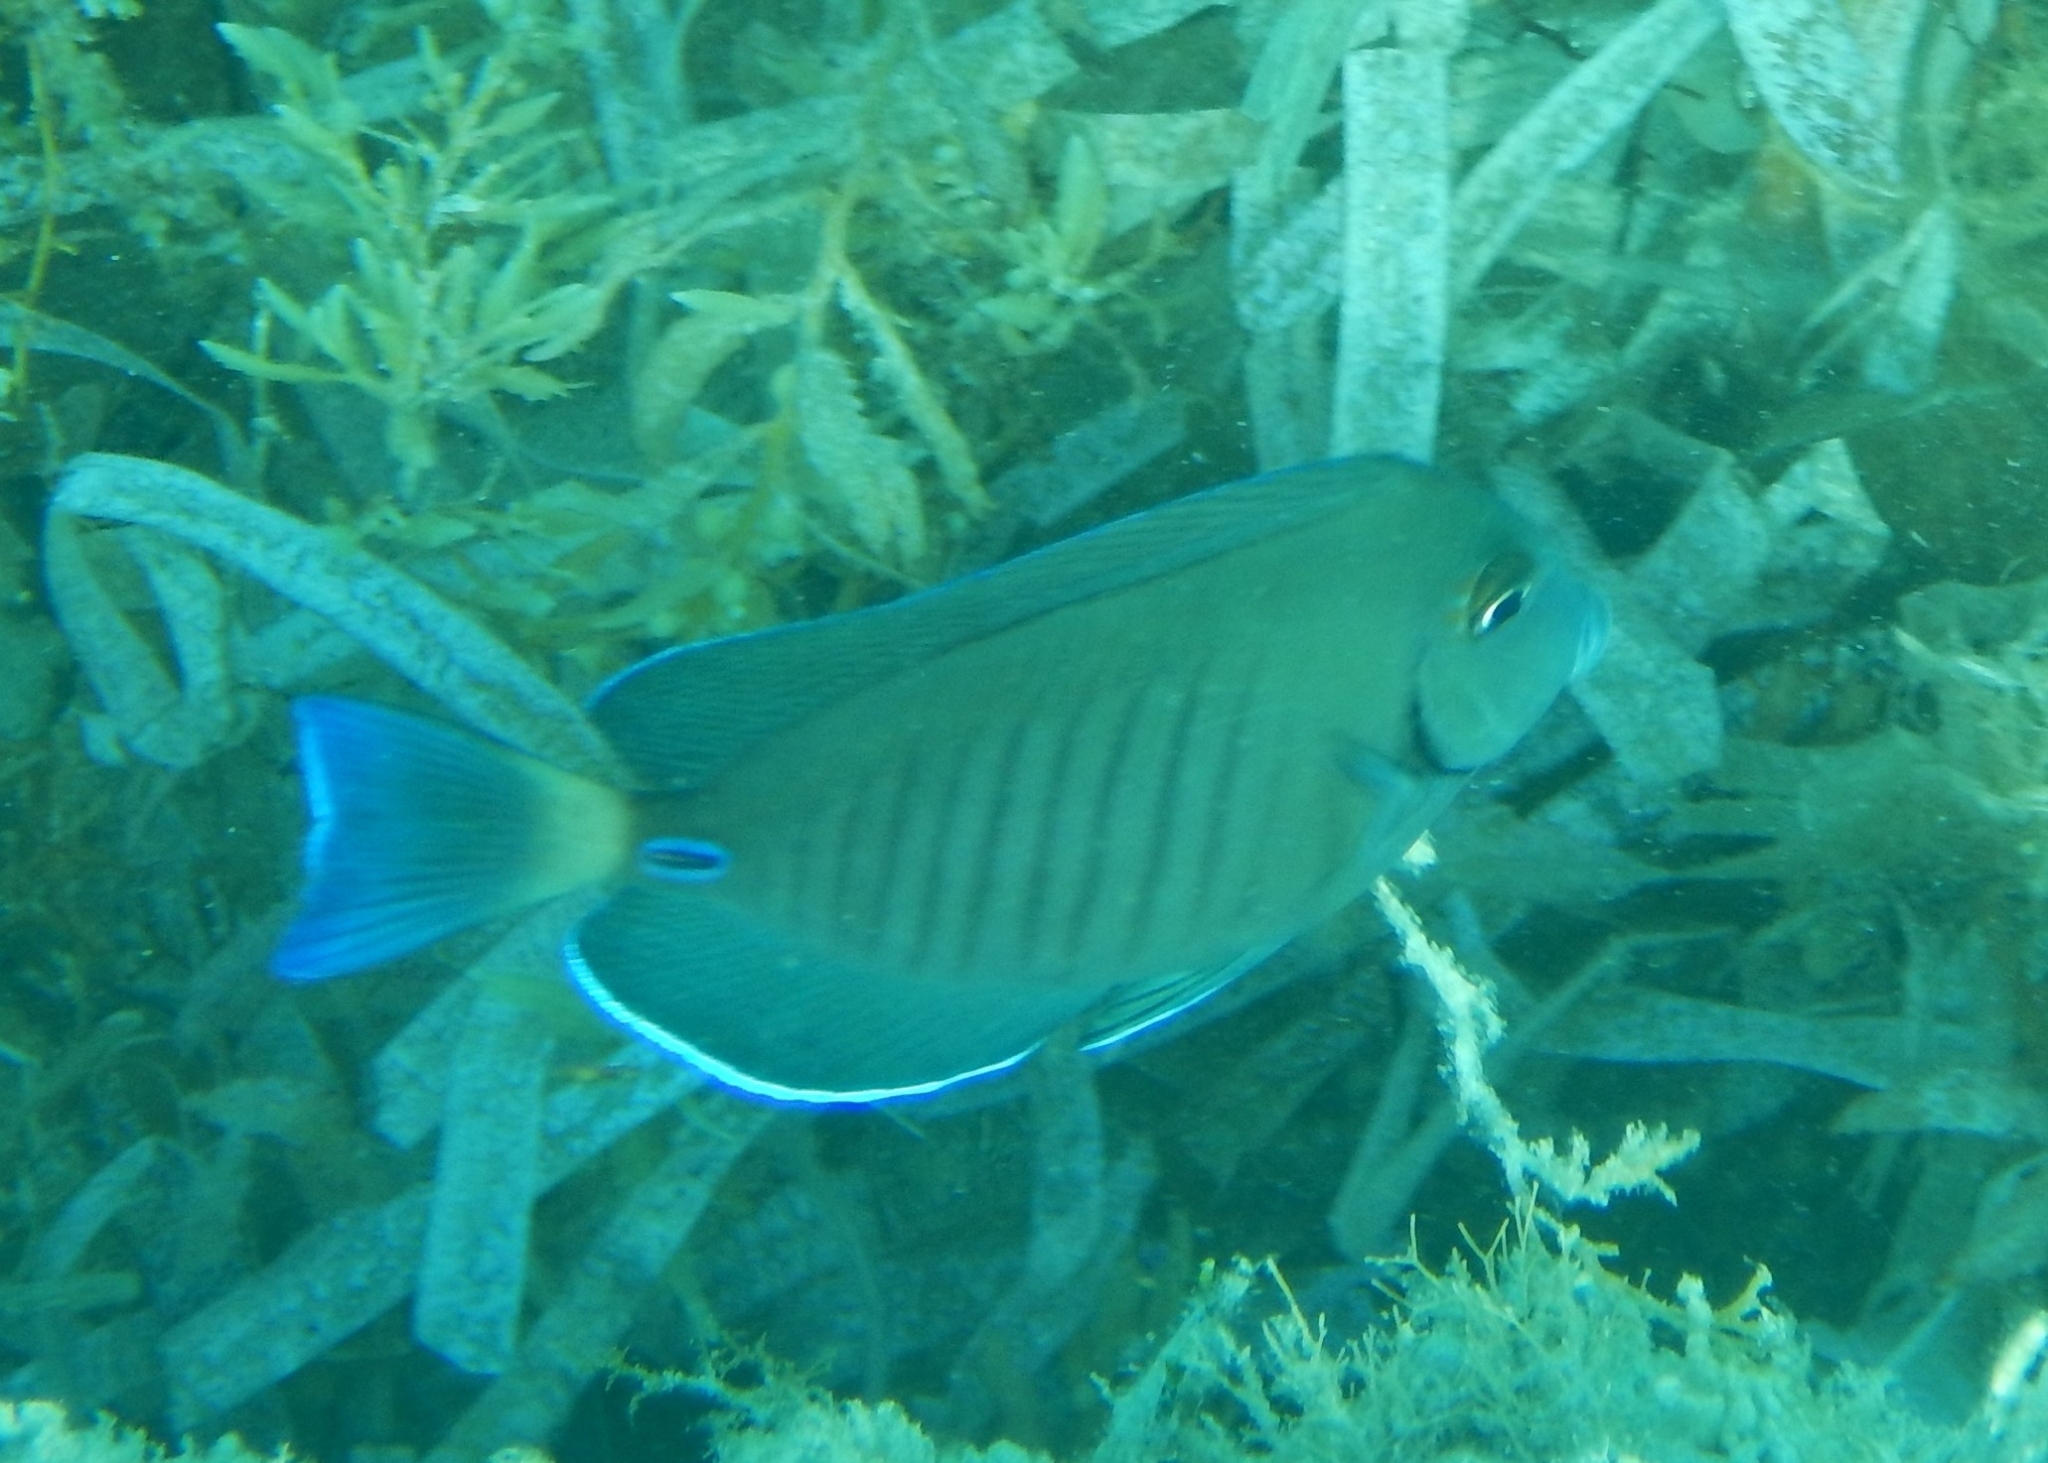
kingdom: Animalia
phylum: Chordata
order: Perciformes
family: Acanthuridae
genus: Acanthurus
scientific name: Acanthurus chirurgus
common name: Doctorfish
